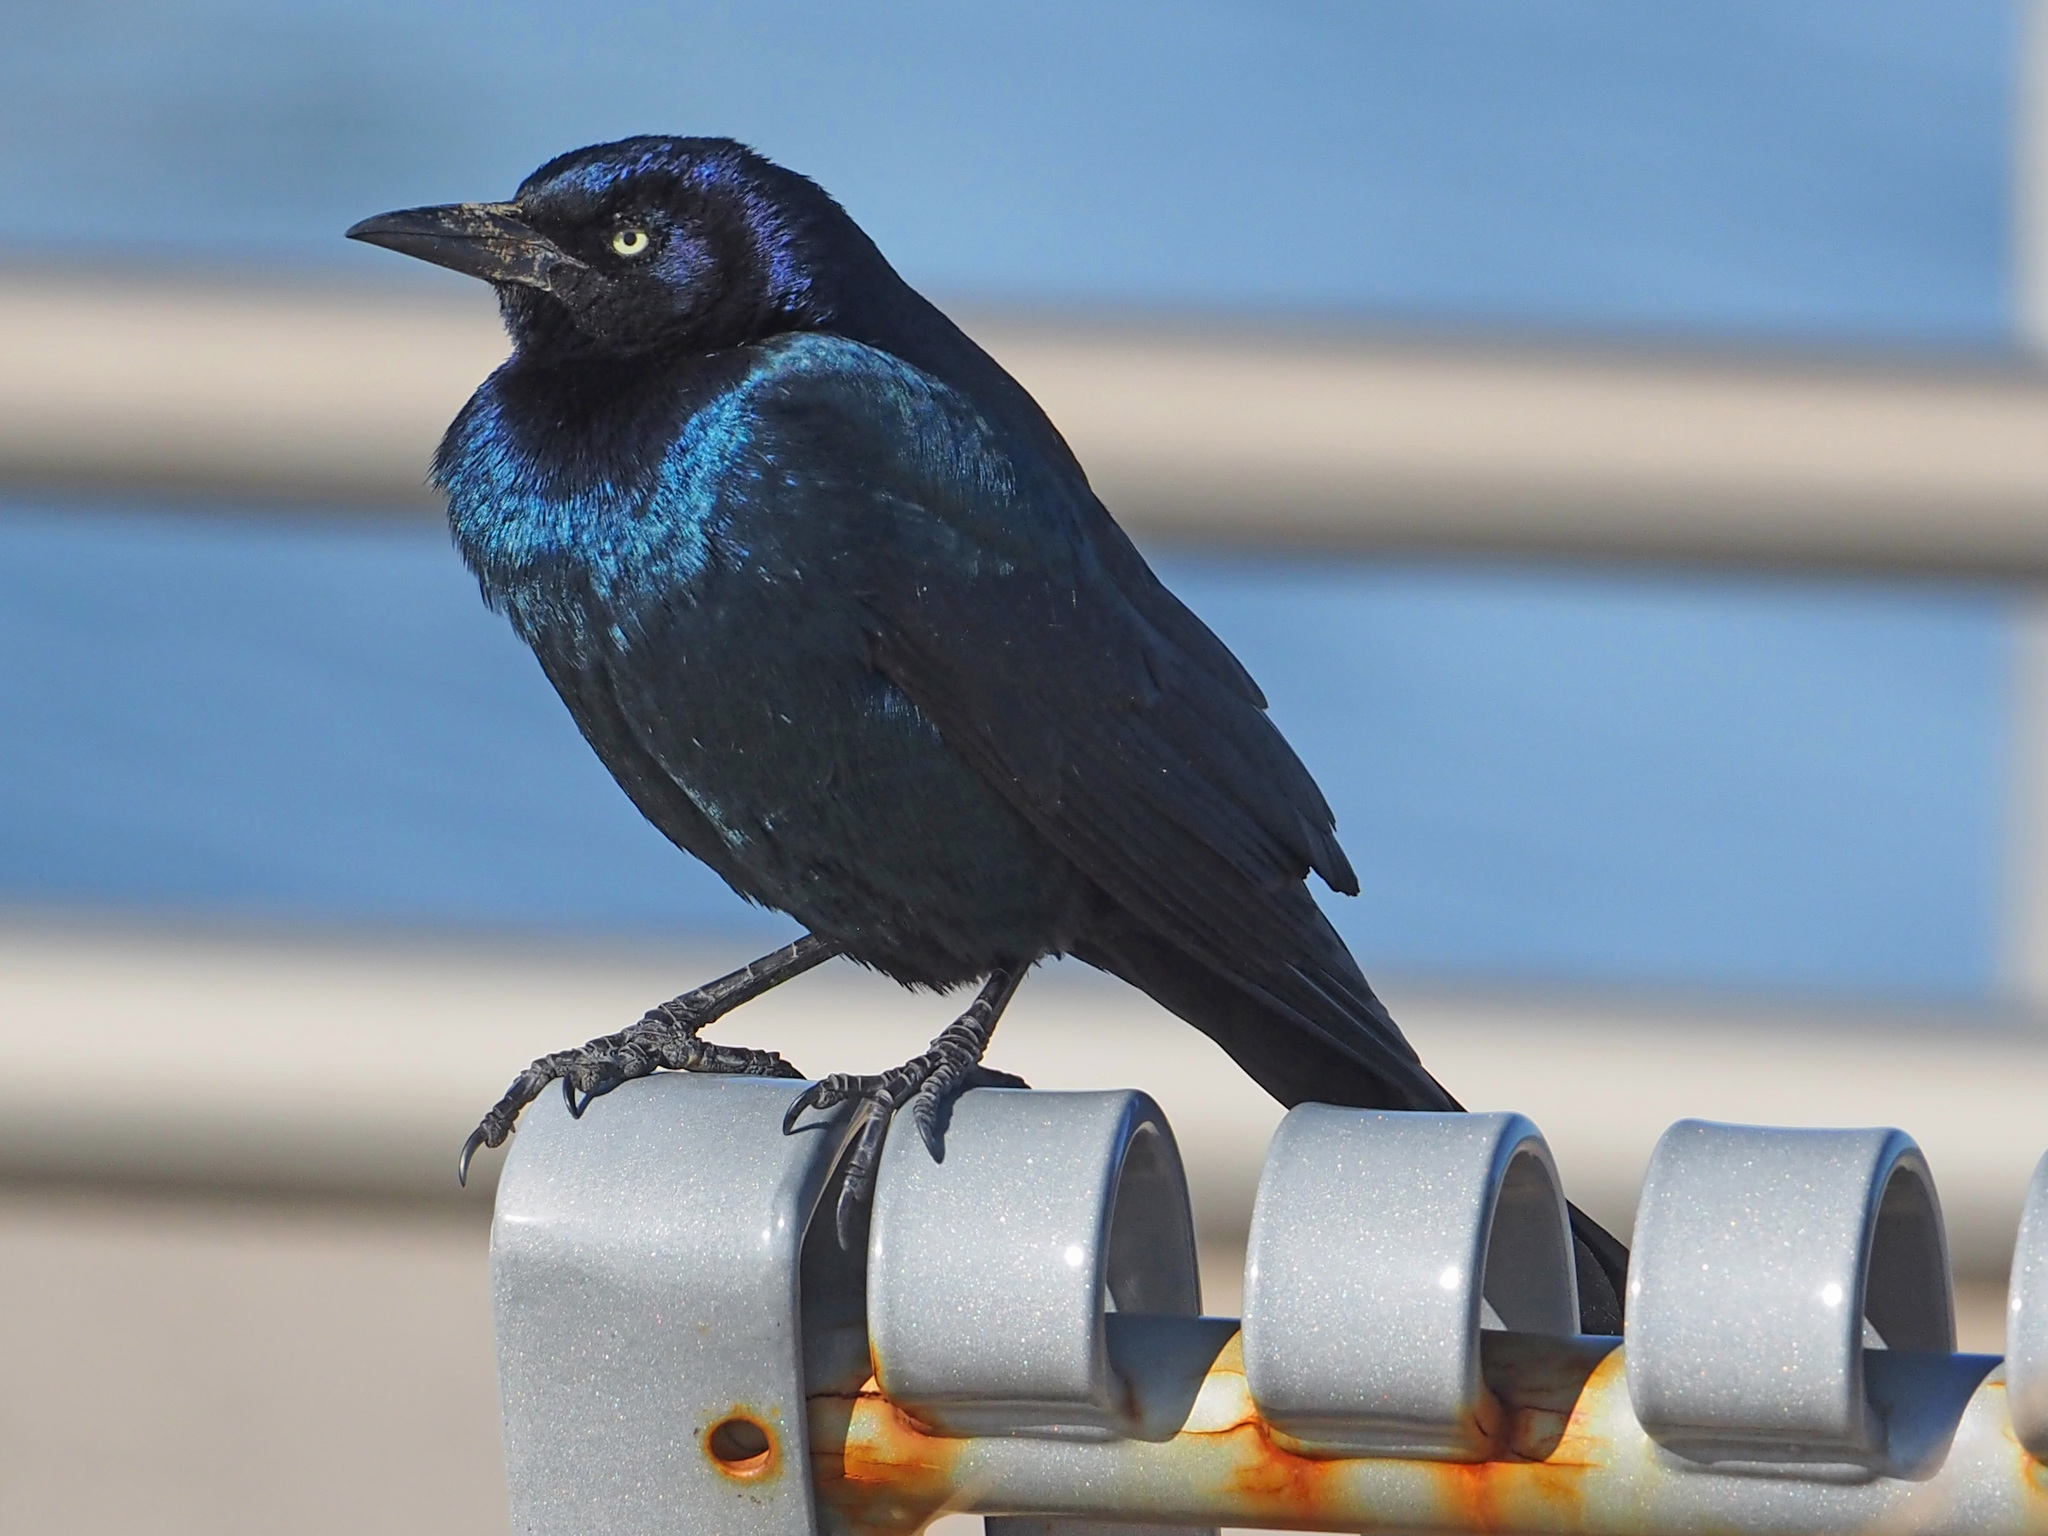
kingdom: Animalia
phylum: Chordata
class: Aves
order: Passeriformes
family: Icteridae
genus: Quiscalus
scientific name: Quiscalus major
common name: Boat-tailed grackle
